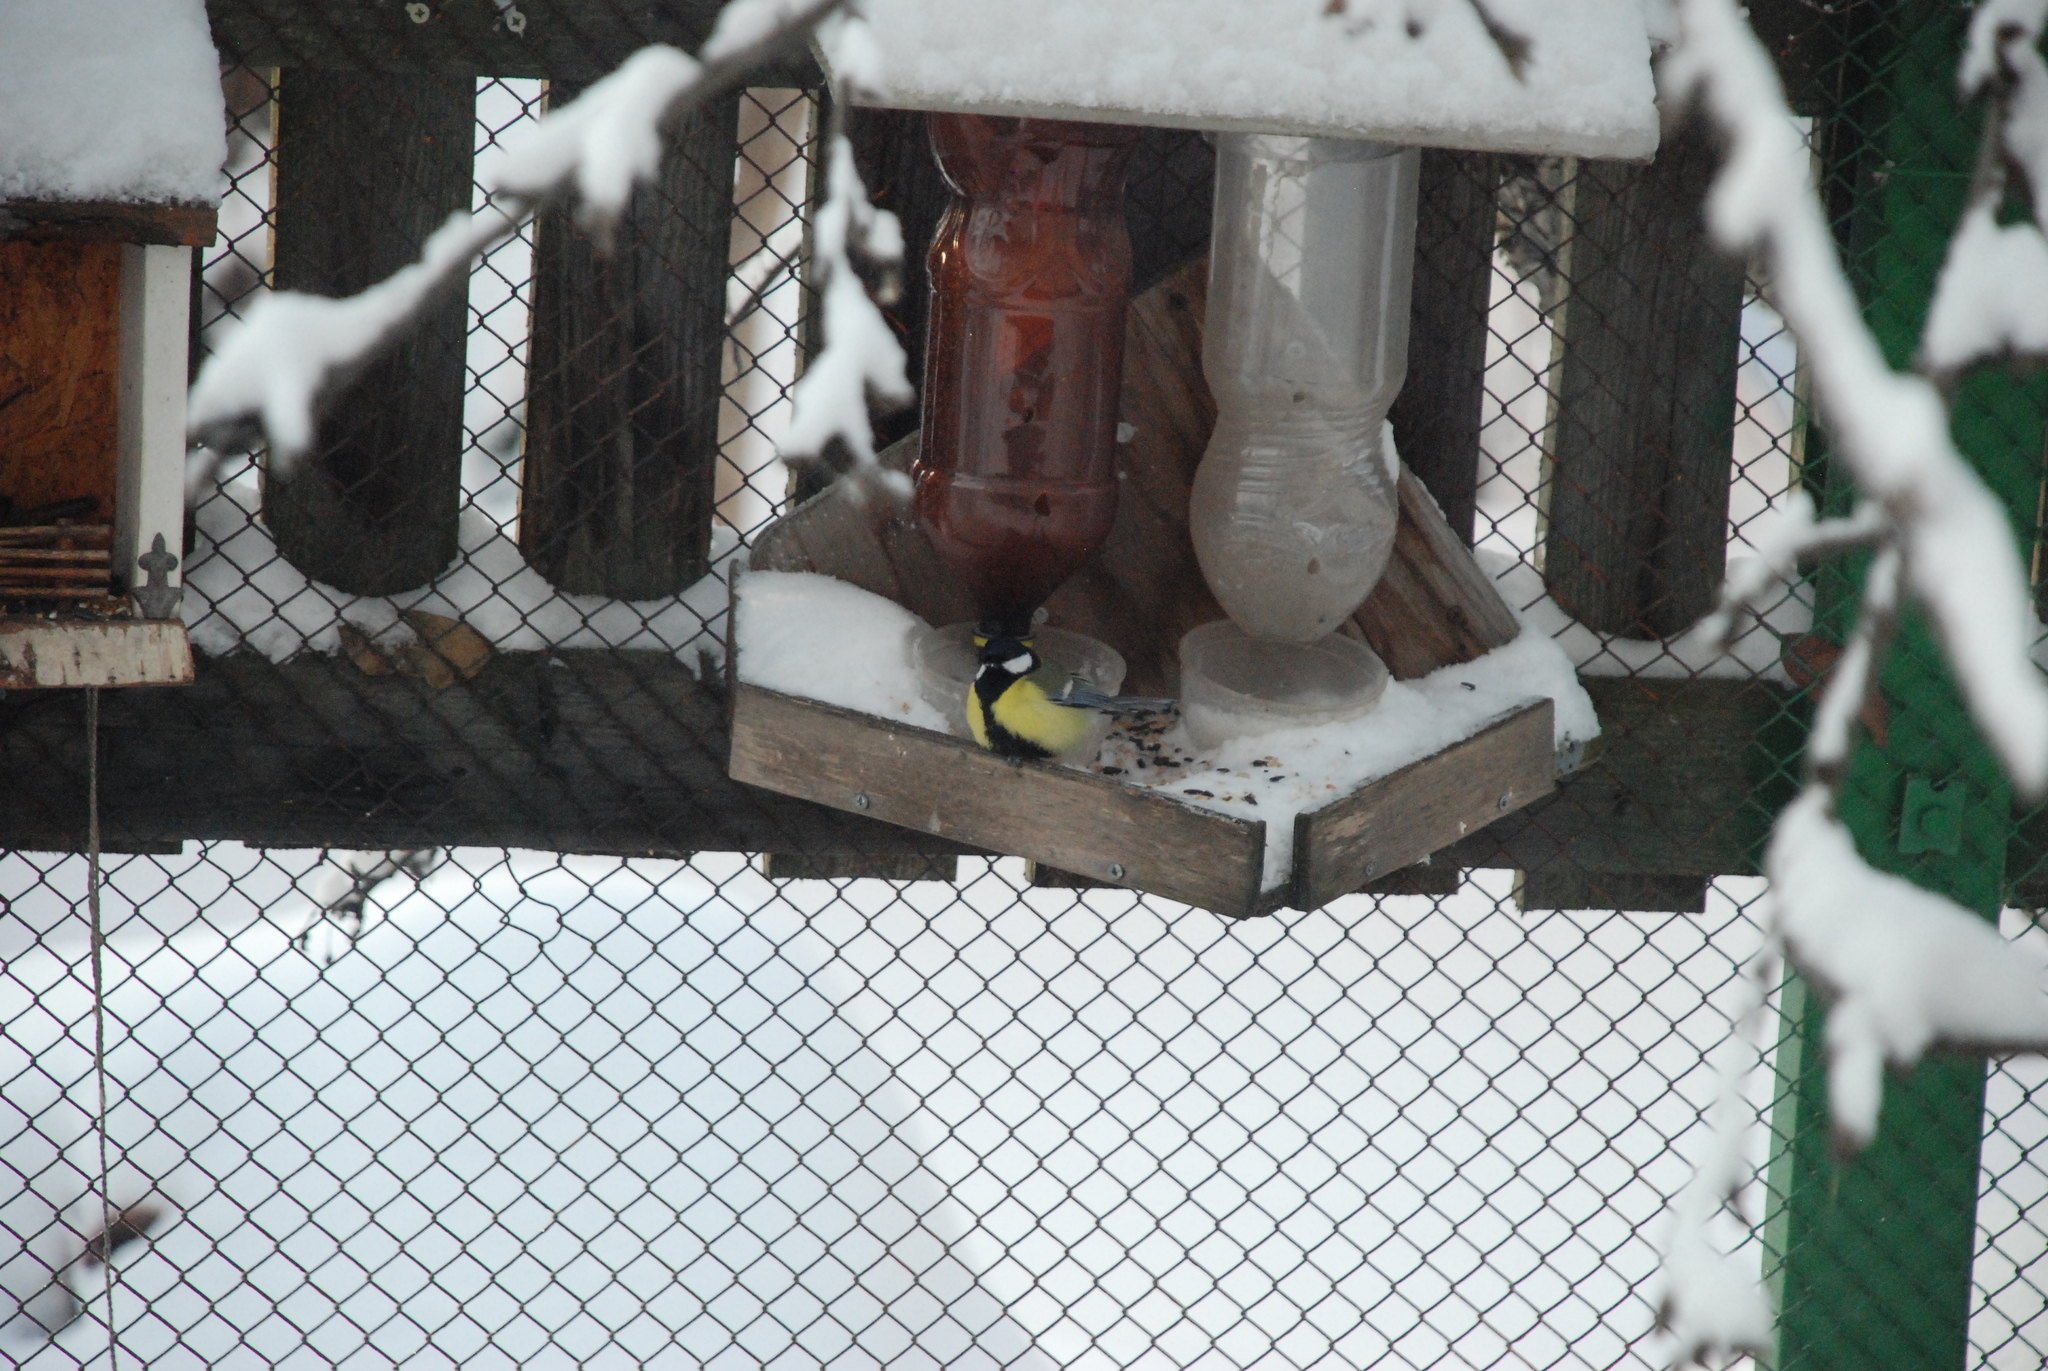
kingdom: Animalia
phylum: Chordata
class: Aves
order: Passeriformes
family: Paridae
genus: Parus
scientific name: Parus major
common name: Great tit
